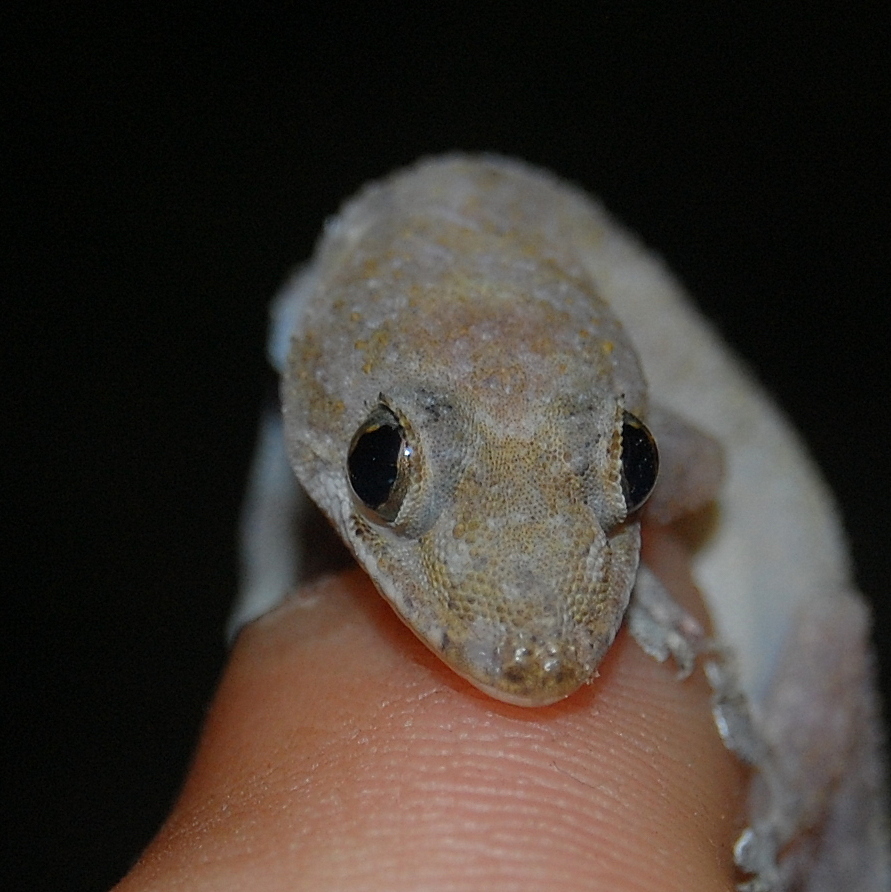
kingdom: Animalia
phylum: Chordata
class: Squamata
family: Gekkonidae
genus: Hemidactylus
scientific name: Hemidactylus mabouia
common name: House gecko
